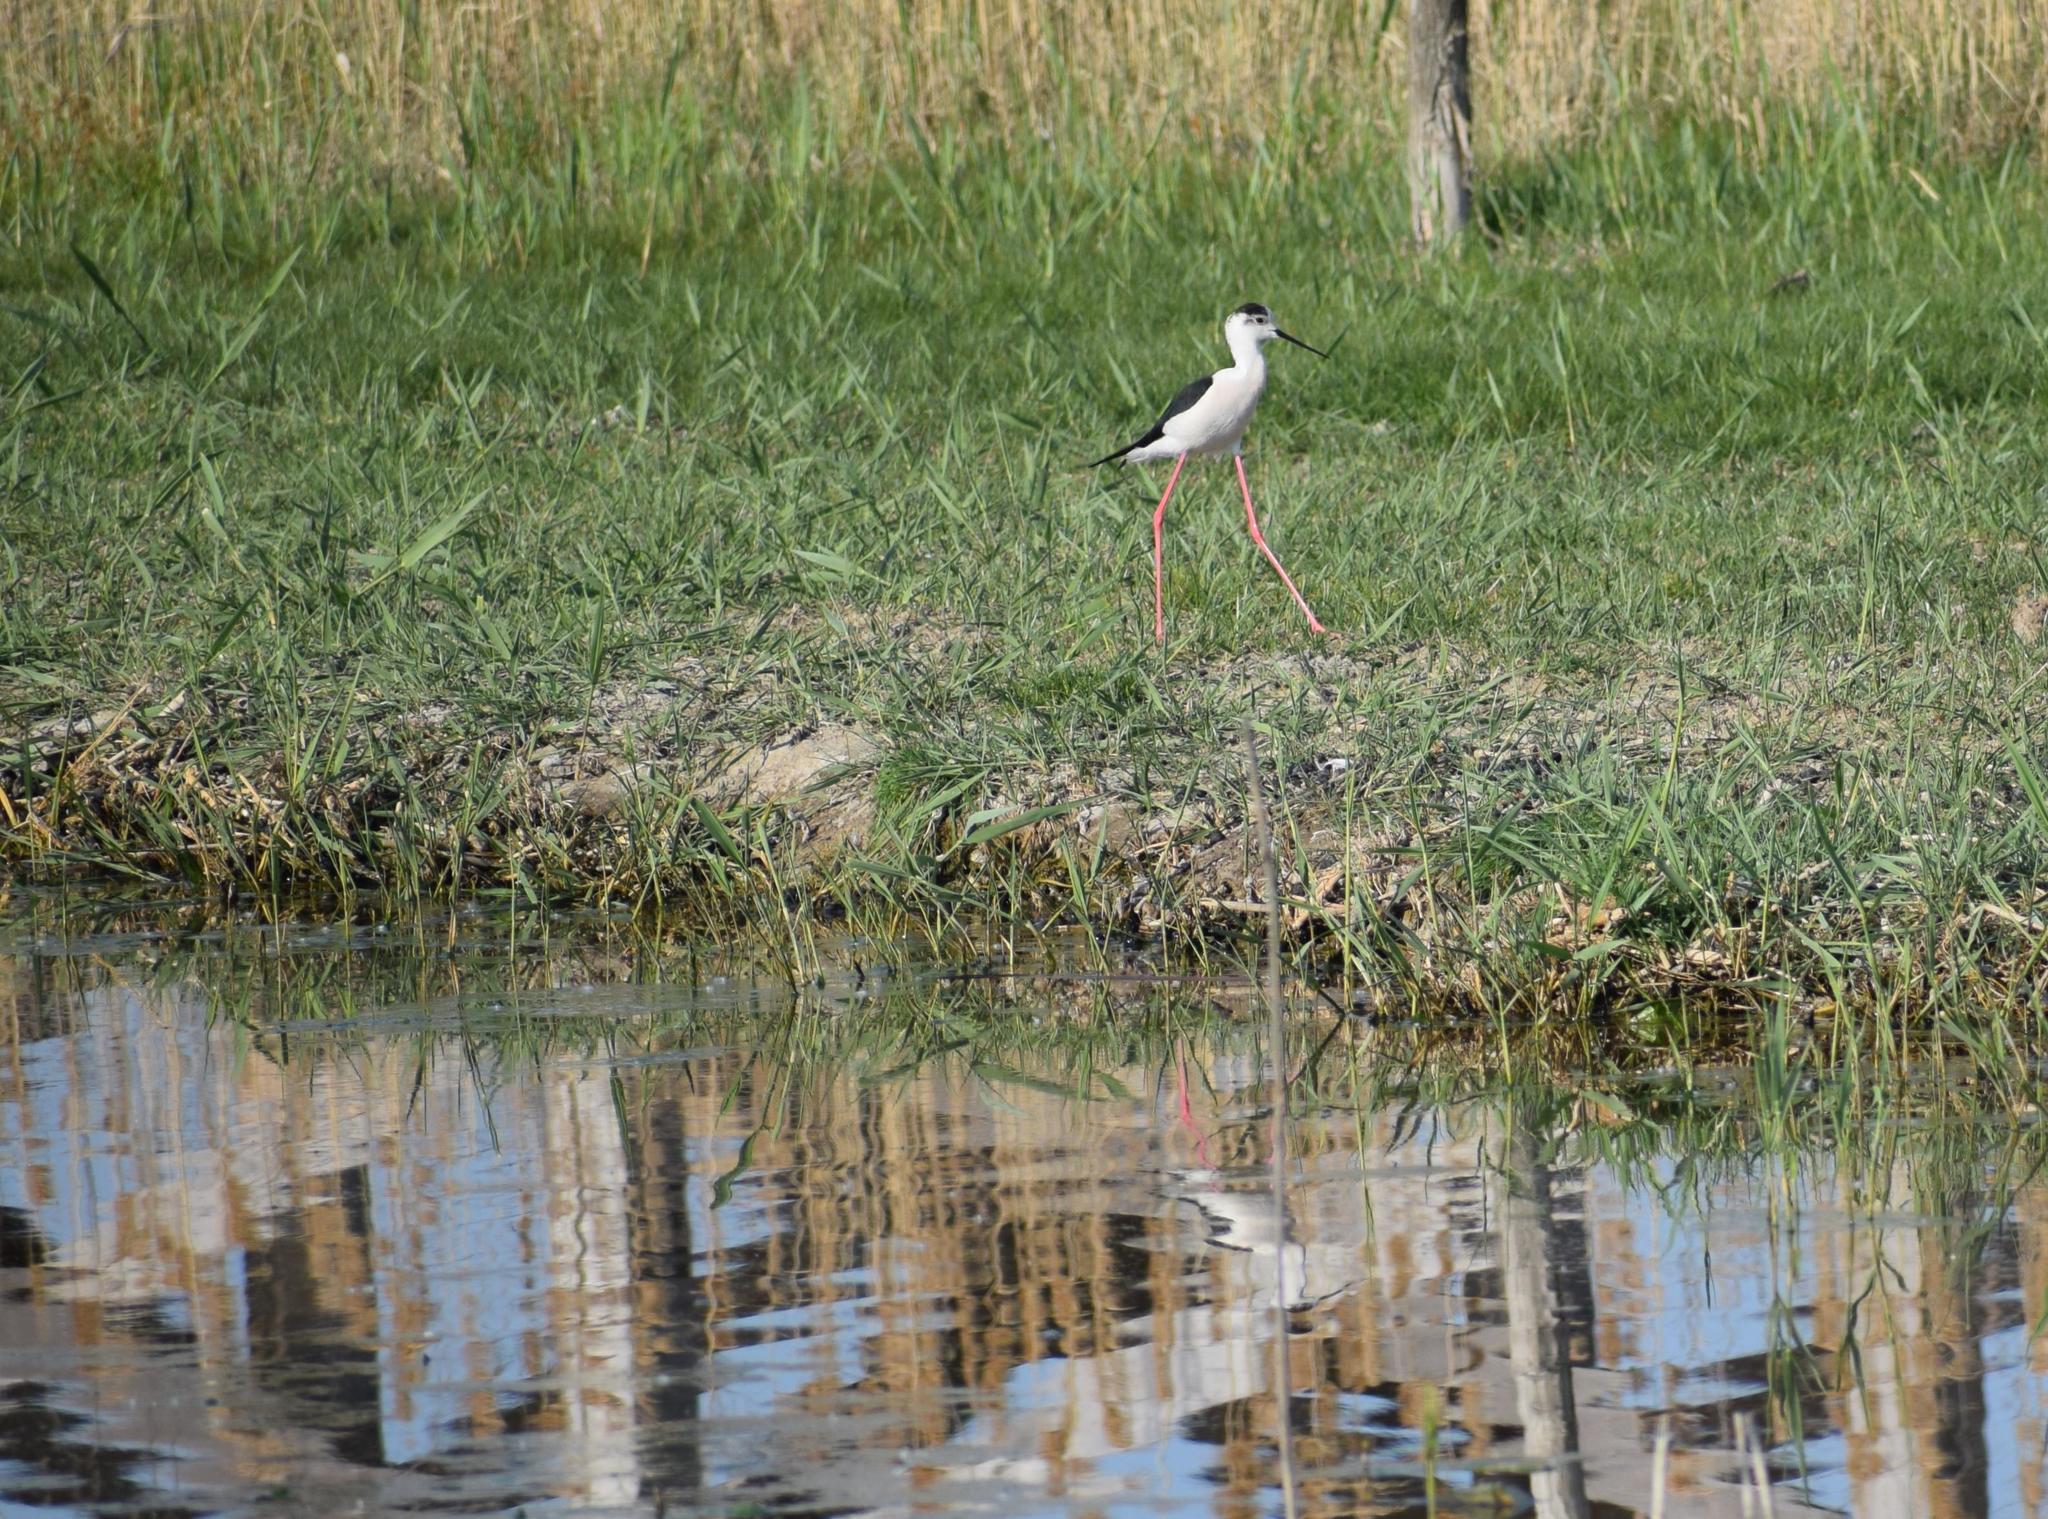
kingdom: Animalia
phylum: Chordata
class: Aves
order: Charadriiformes
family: Recurvirostridae
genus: Himantopus
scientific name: Himantopus himantopus
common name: Black-winged stilt
